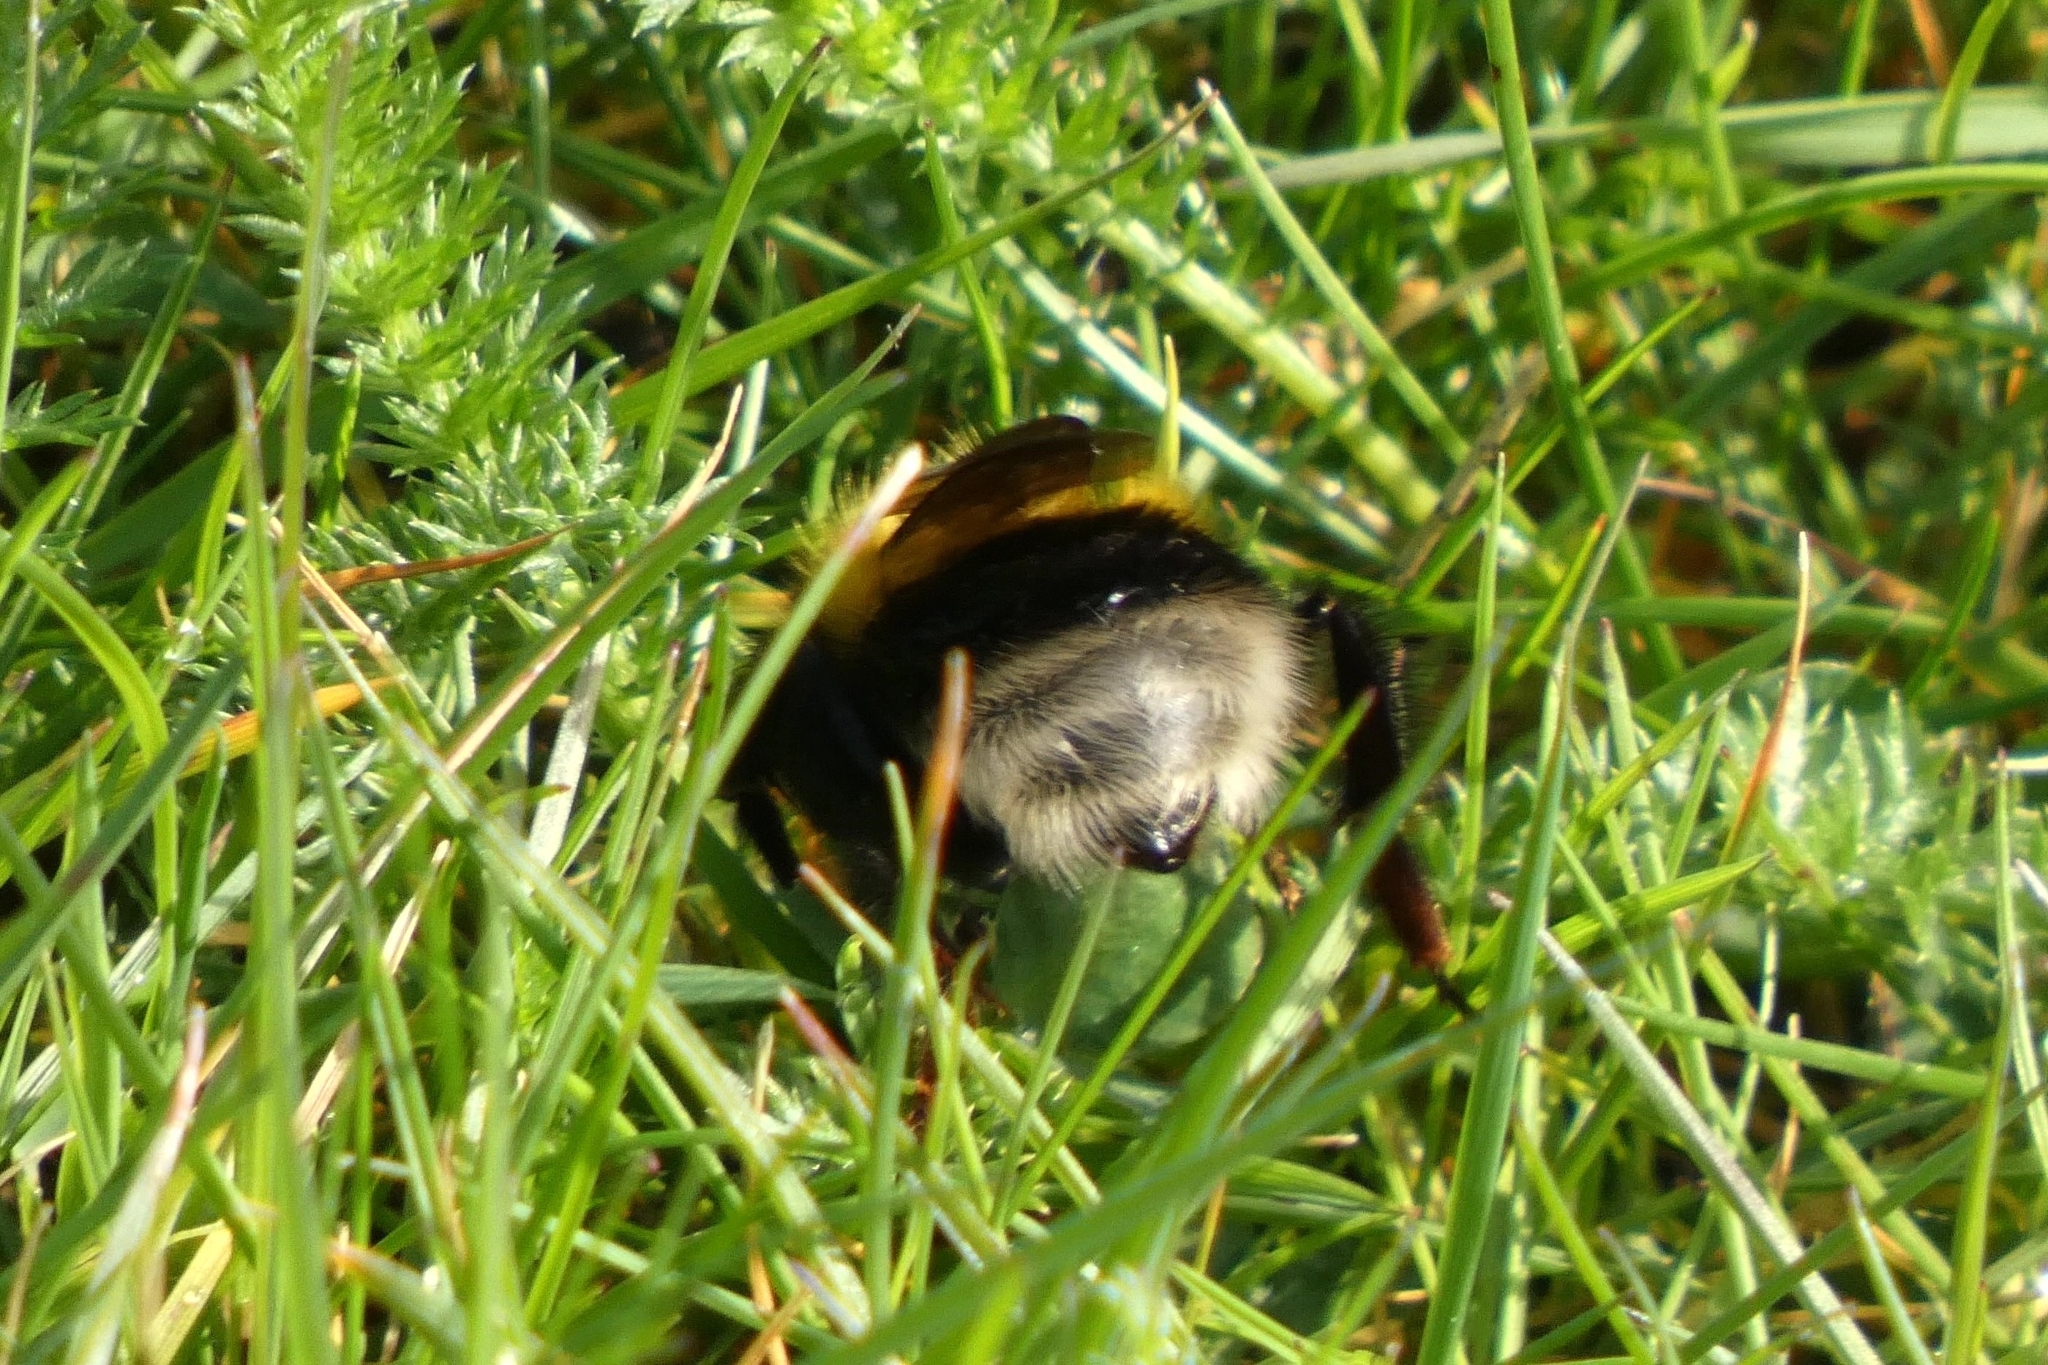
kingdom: Animalia
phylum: Arthropoda
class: Insecta
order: Hymenoptera
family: Apidae
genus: Bombus
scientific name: Bombus hortorum
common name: Garden bumblebee
